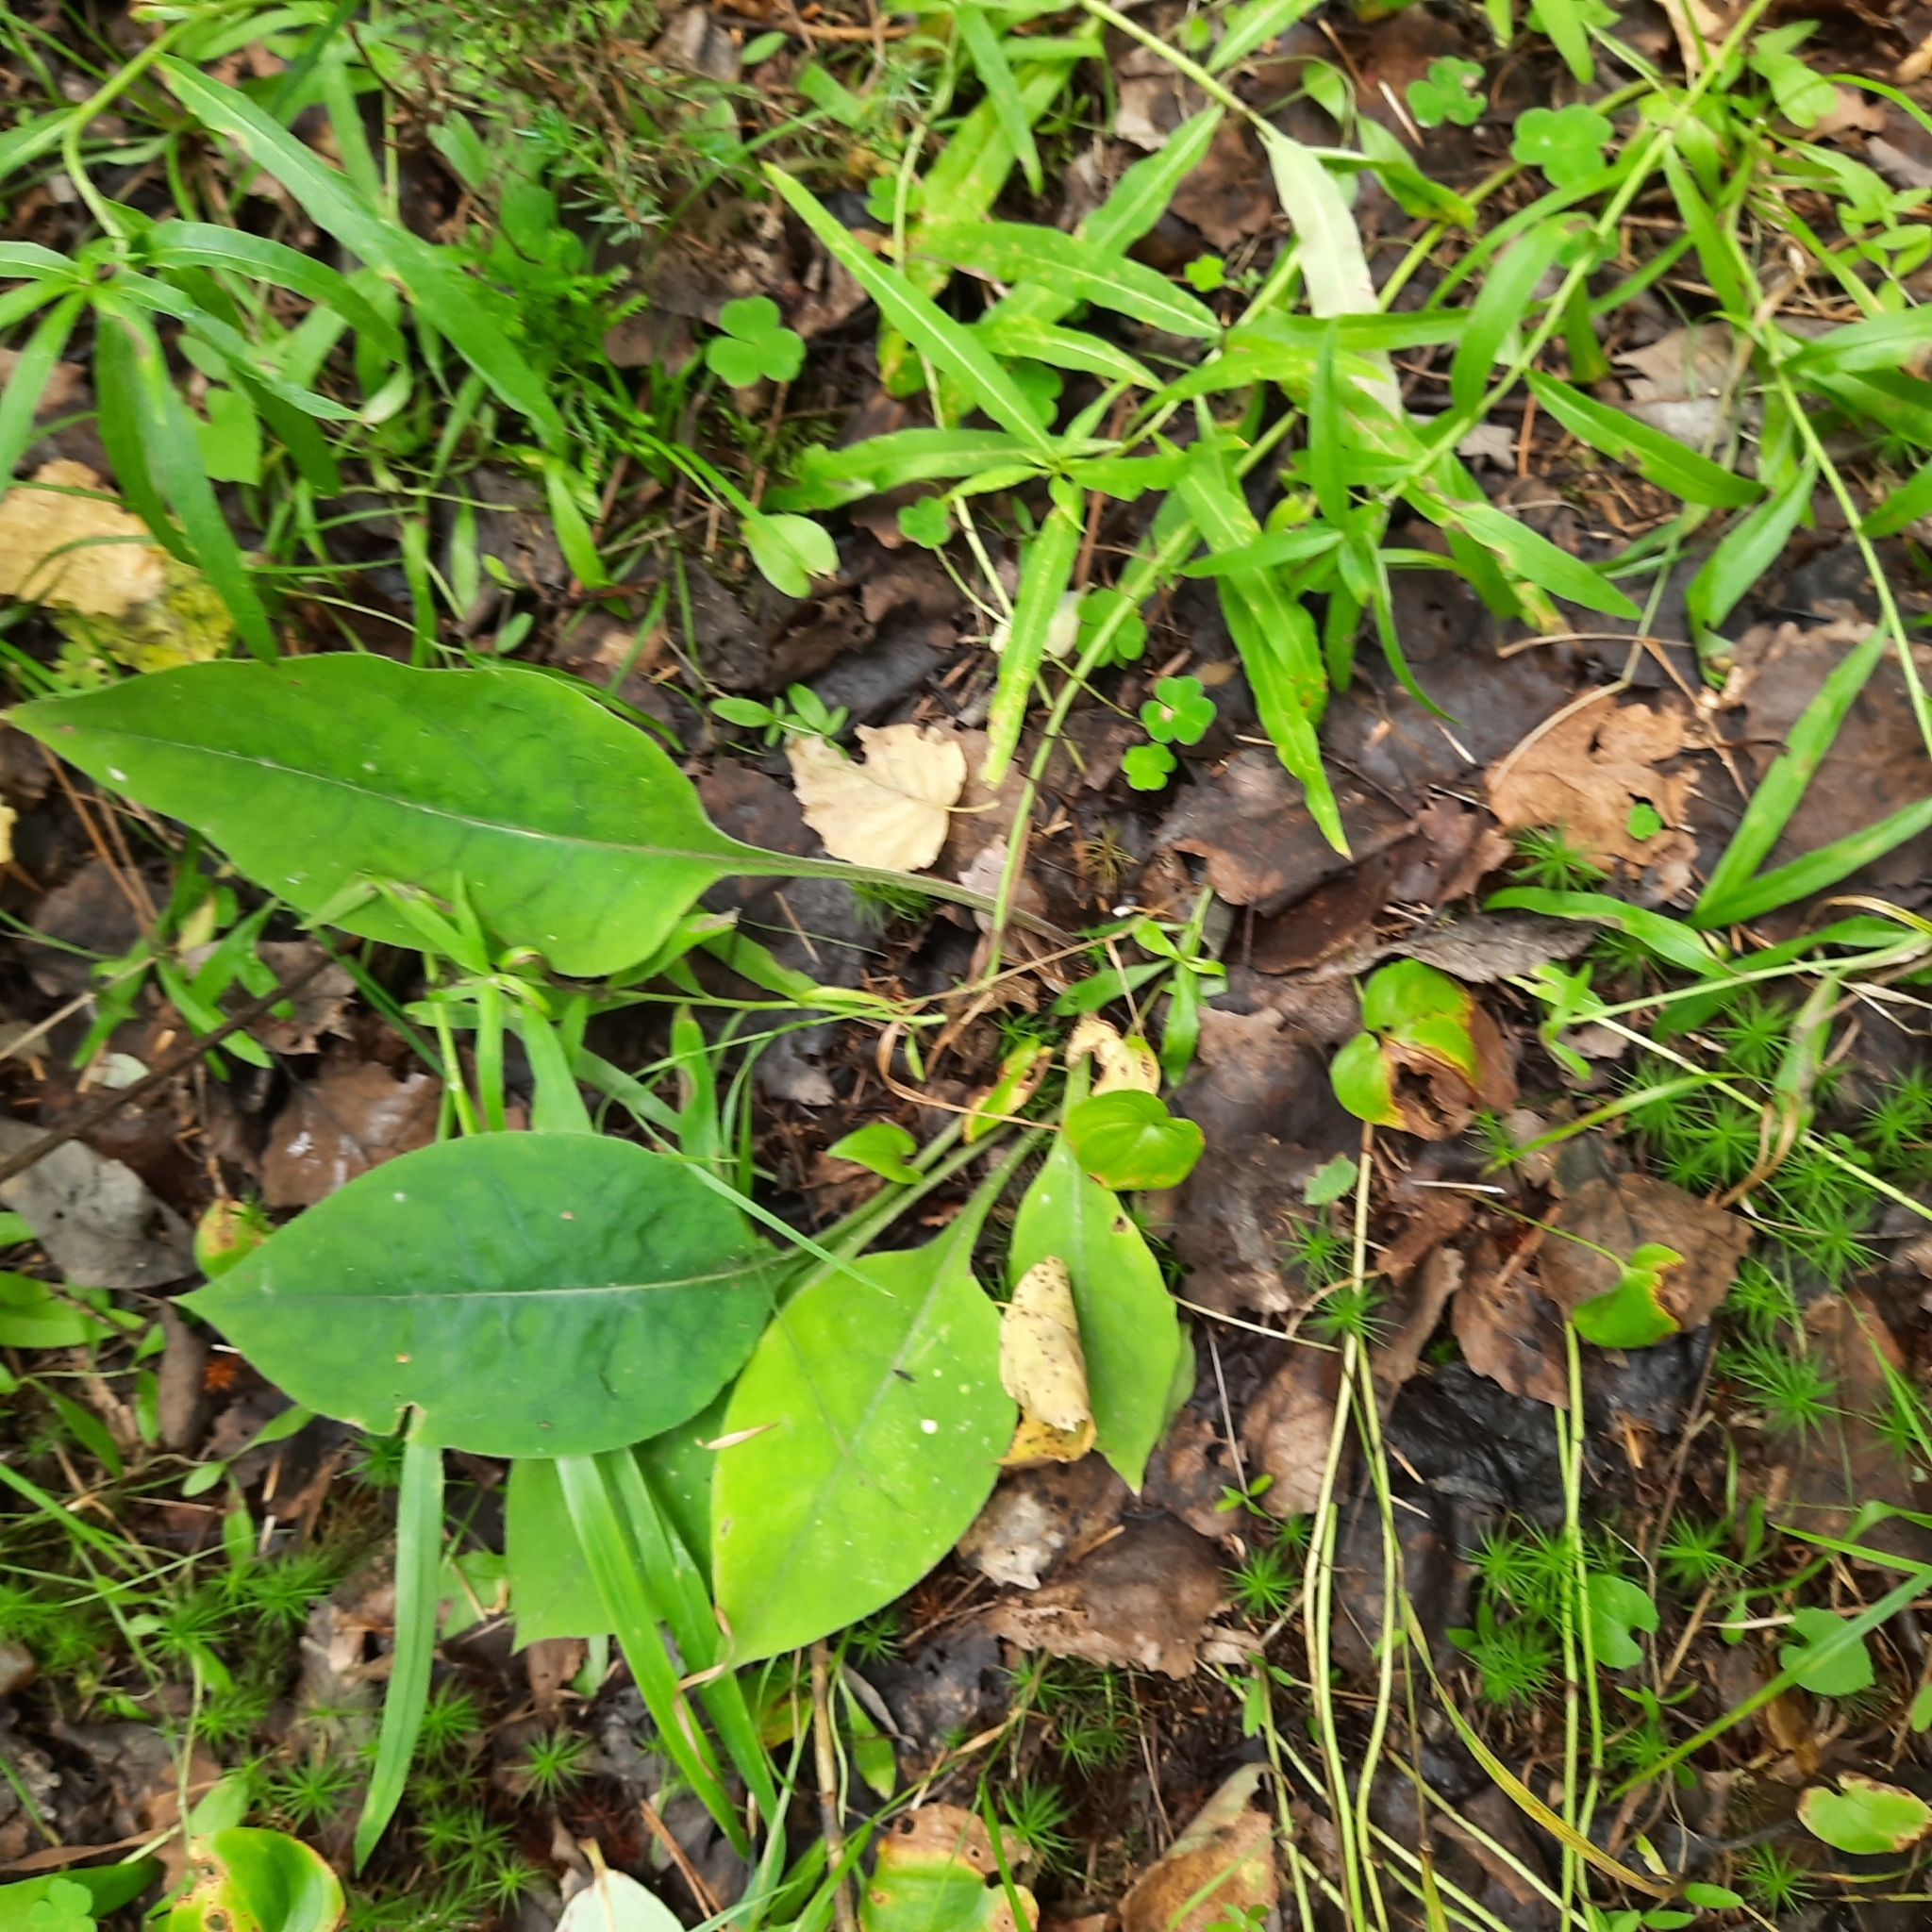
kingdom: Plantae
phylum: Tracheophyta
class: Magnoliopsida
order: Boraginales
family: Boraginaceae
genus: Pulmonaria
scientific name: Pulmonaria mollis
